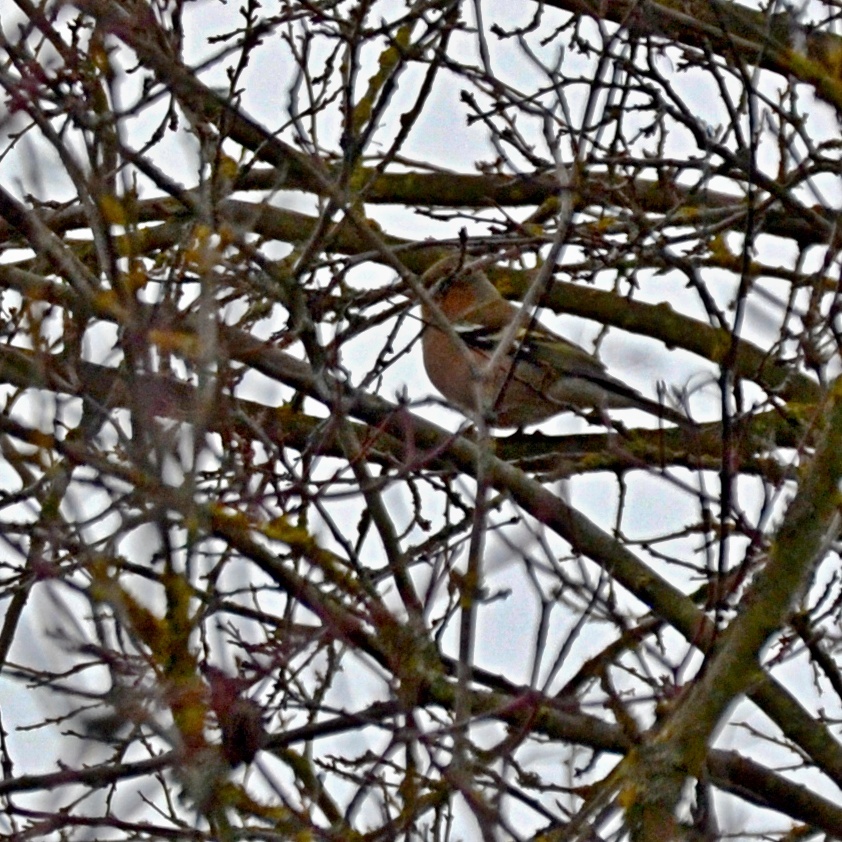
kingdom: Animalia
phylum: Chordata
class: Aves
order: Passeriformes
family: Fringillidae
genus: Fringilla
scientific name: Fringilla coelebs
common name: Common chaffinch
